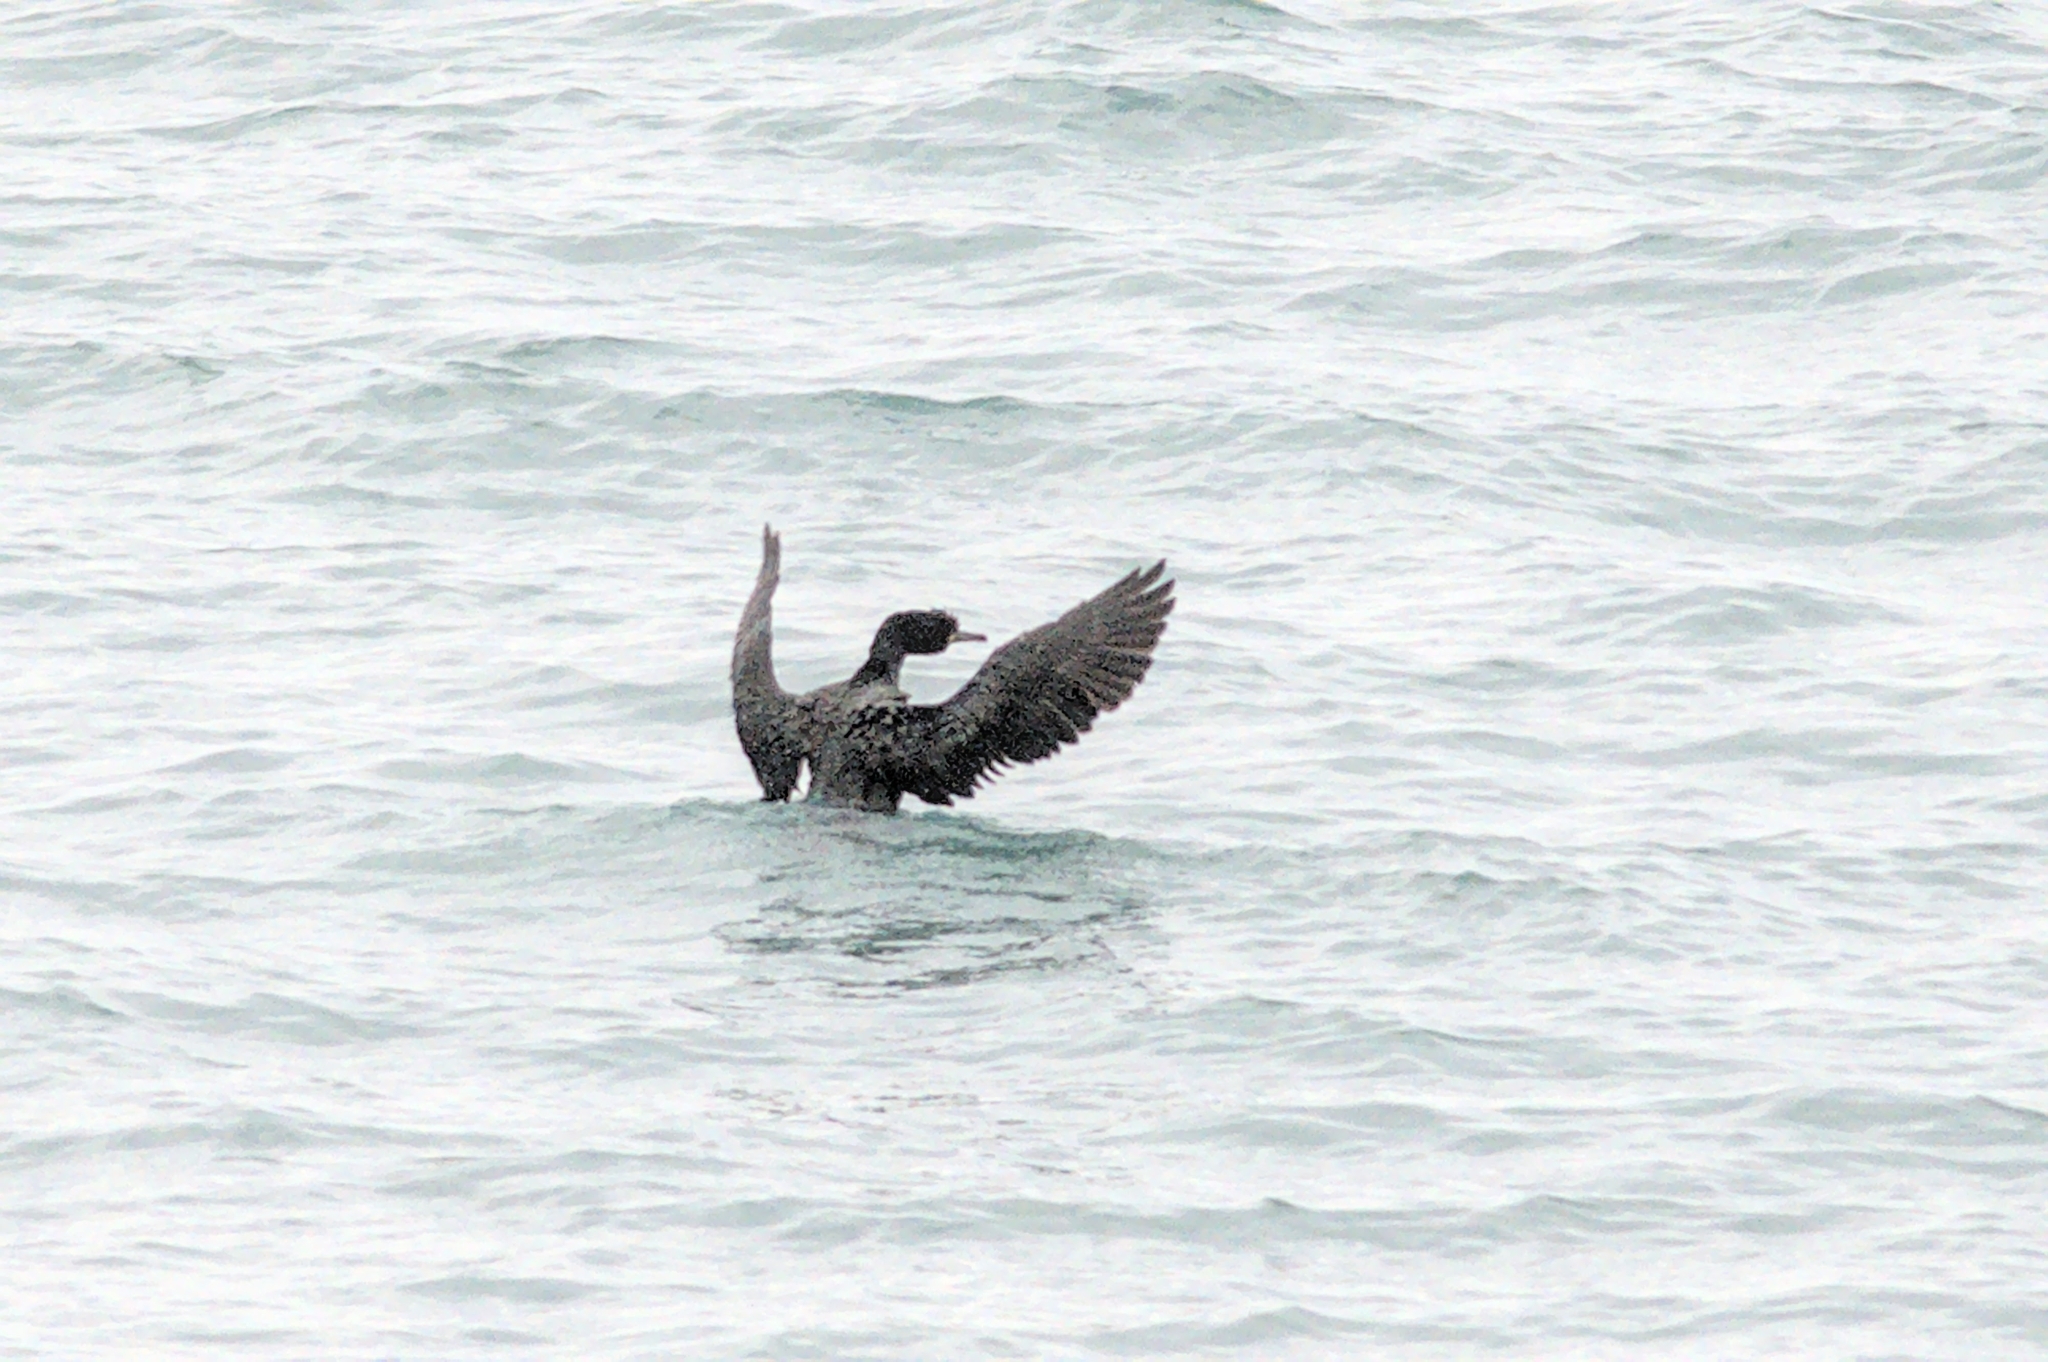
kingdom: Animalia
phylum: Chordata
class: Aves
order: Suliformes
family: Phalacrocoracidae
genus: Phalacrocorax
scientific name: Phalacrocorax aristotelis
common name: European shag
